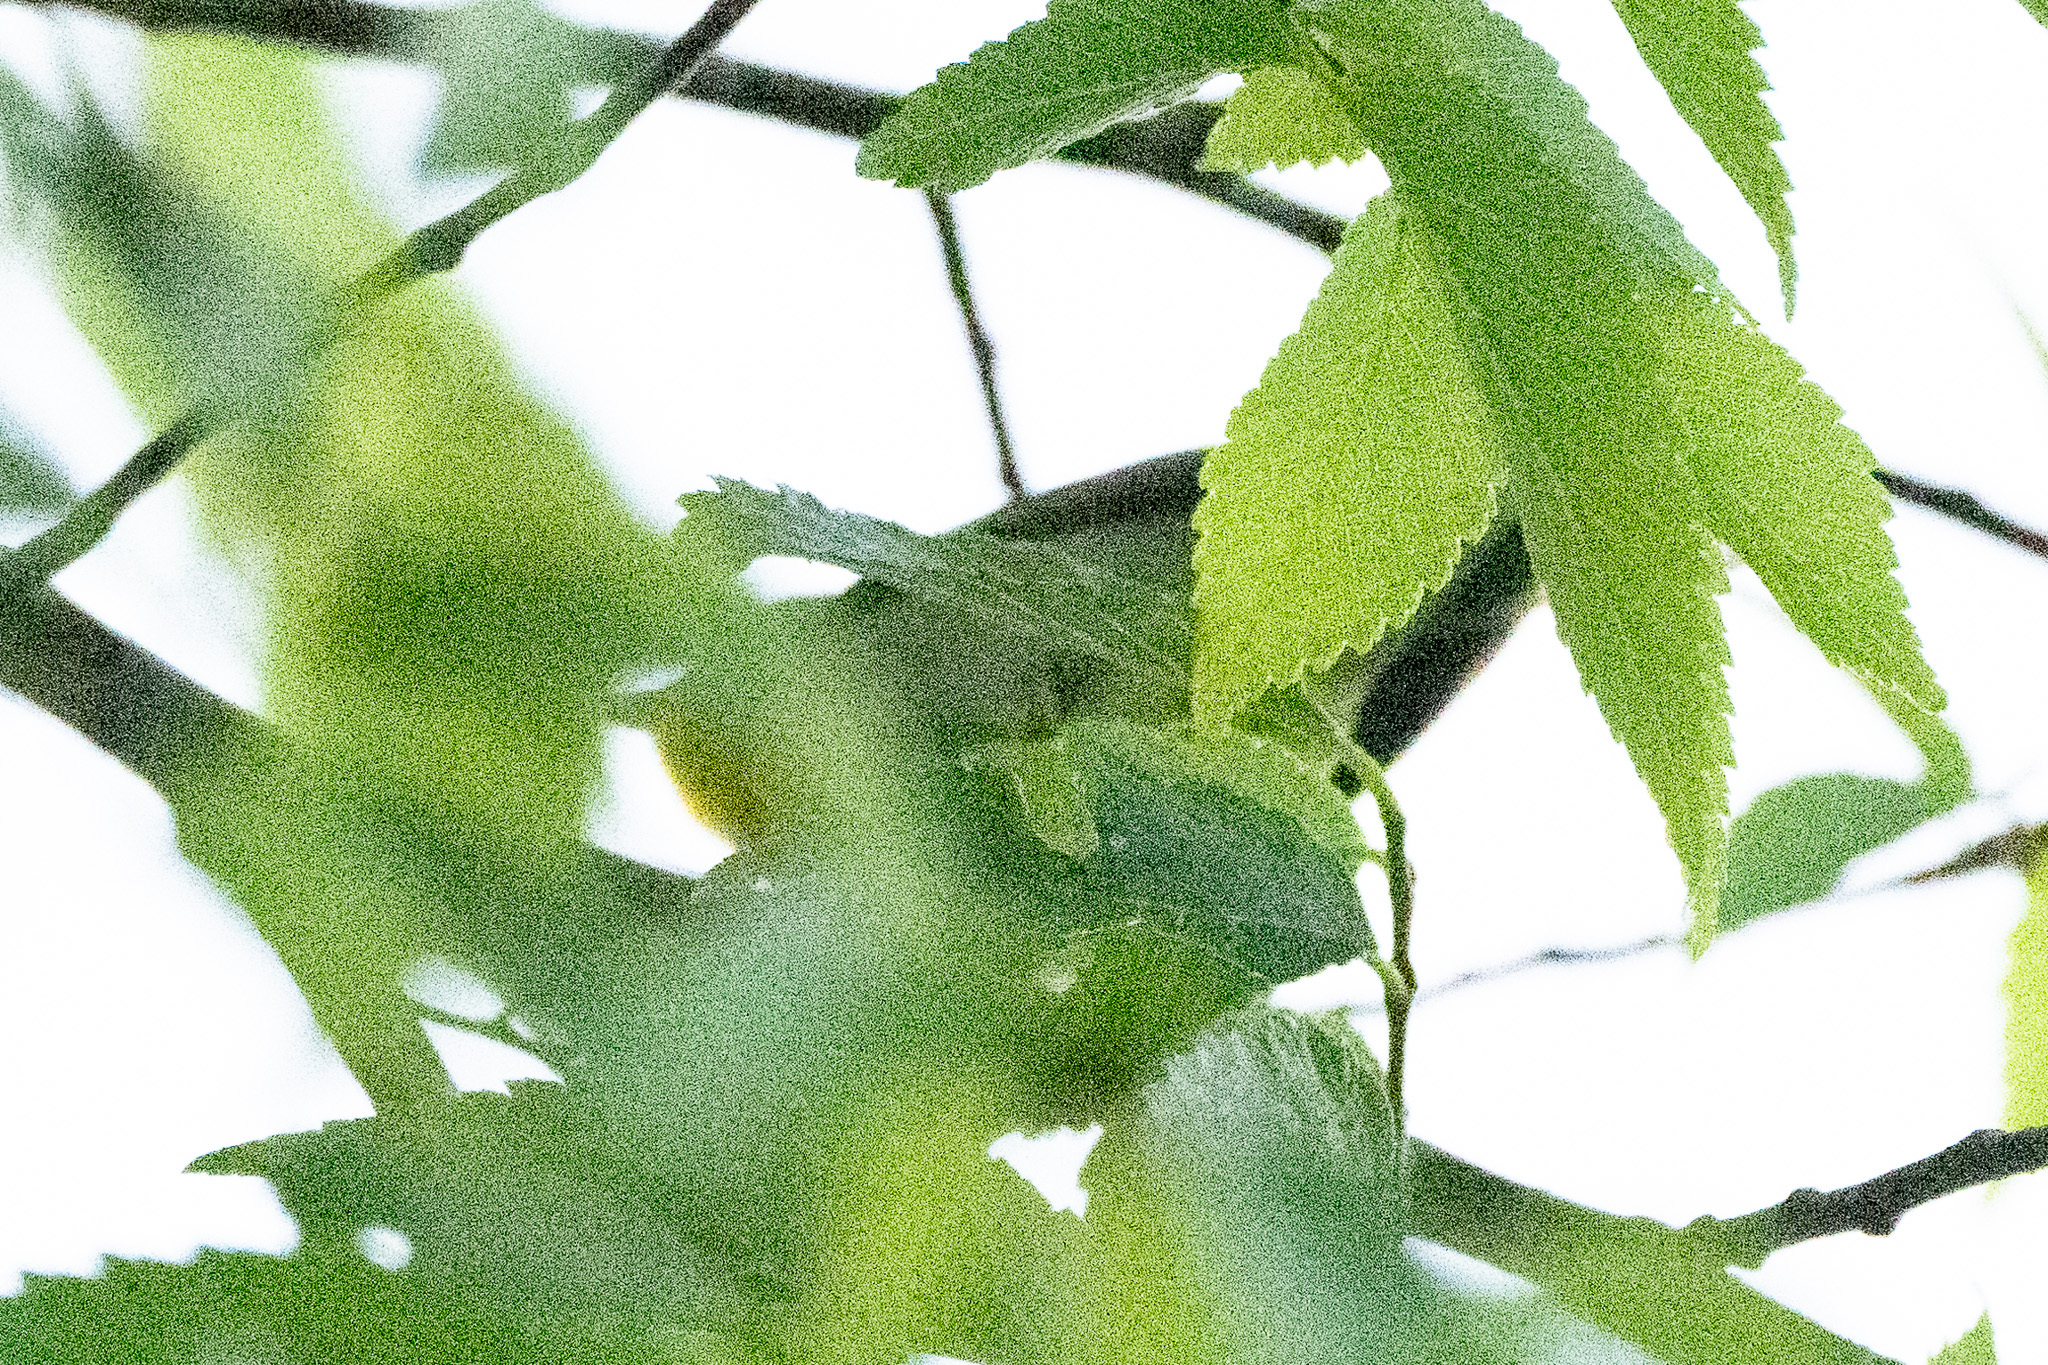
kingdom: Animalia
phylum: Chordata
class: Aves
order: Passeriformes
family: Parulidae
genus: Setophaga
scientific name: Setophaga americana
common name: Northern parula
